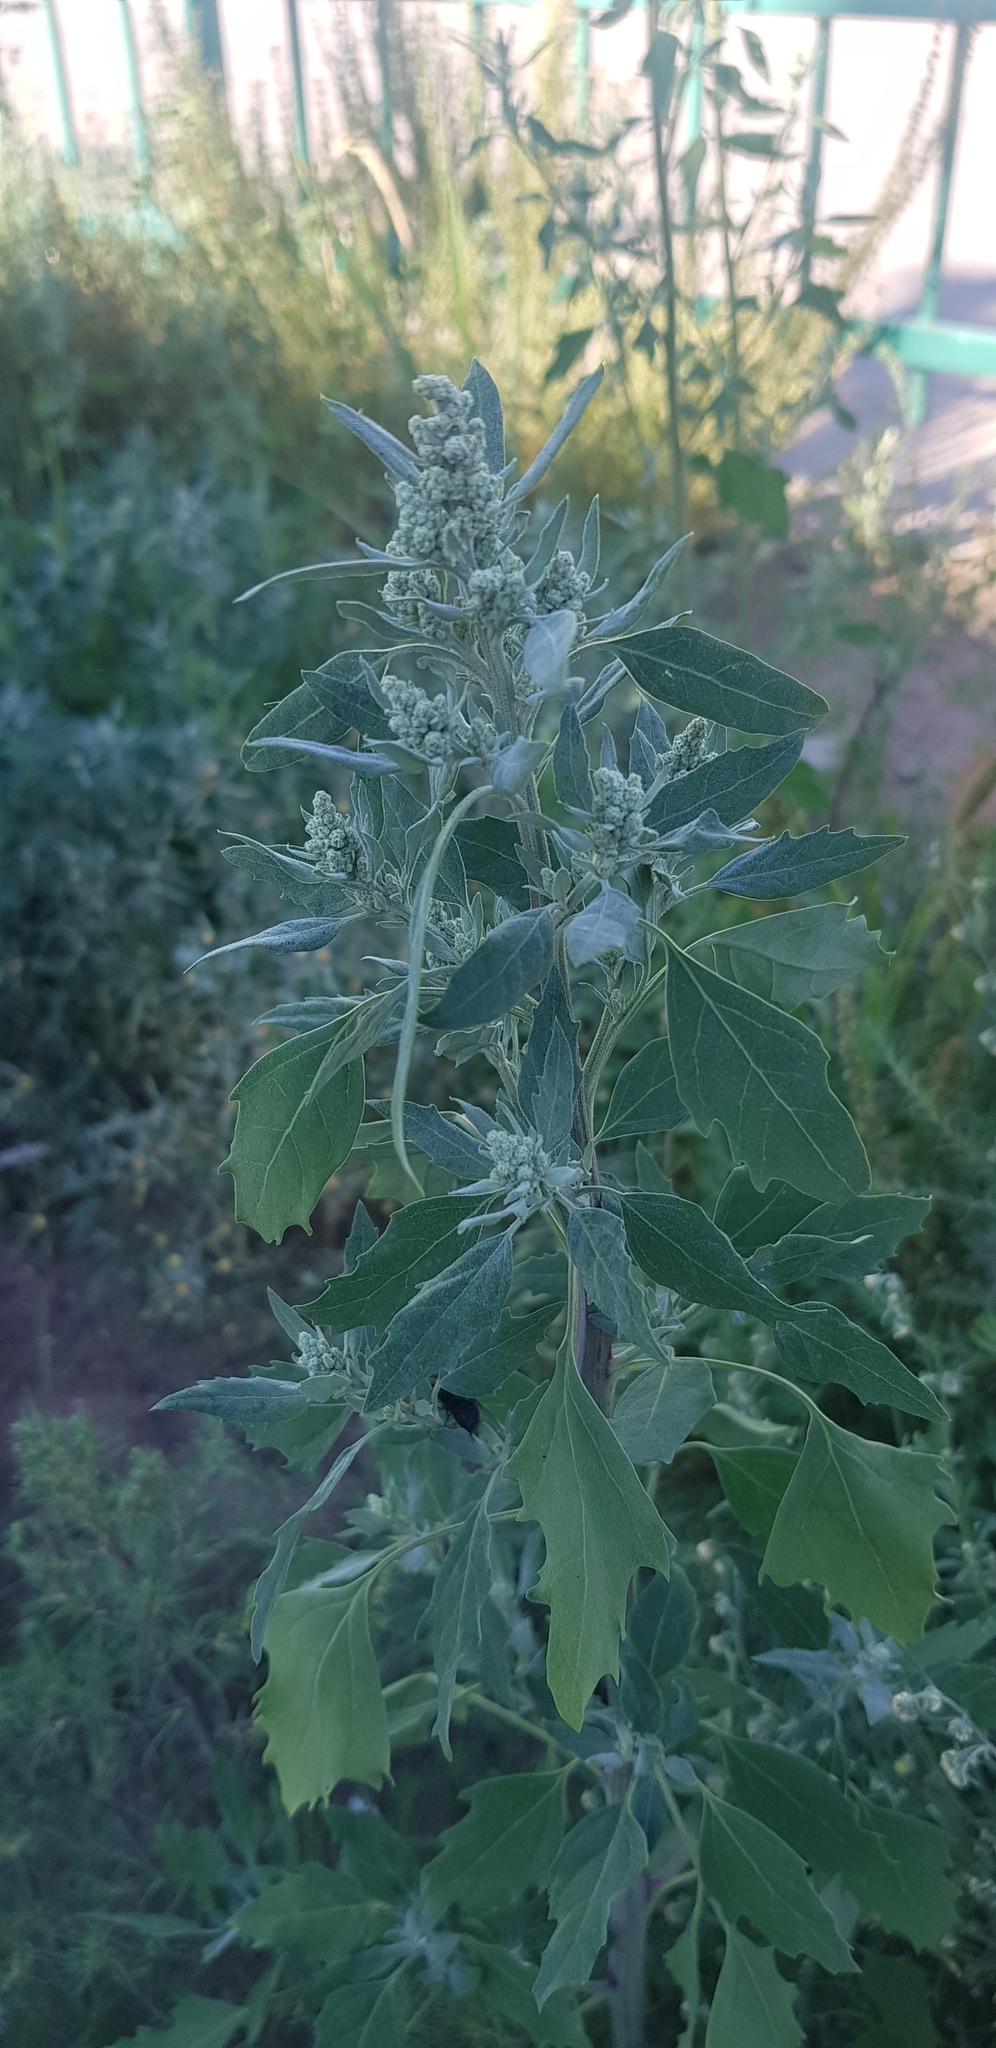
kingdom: Plantae
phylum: Tracheophyta
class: Magnoliopsida
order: Caryophyllales
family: Amaranthaceae
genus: Chenopodium
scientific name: Chenopodium album
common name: Fat-hen
